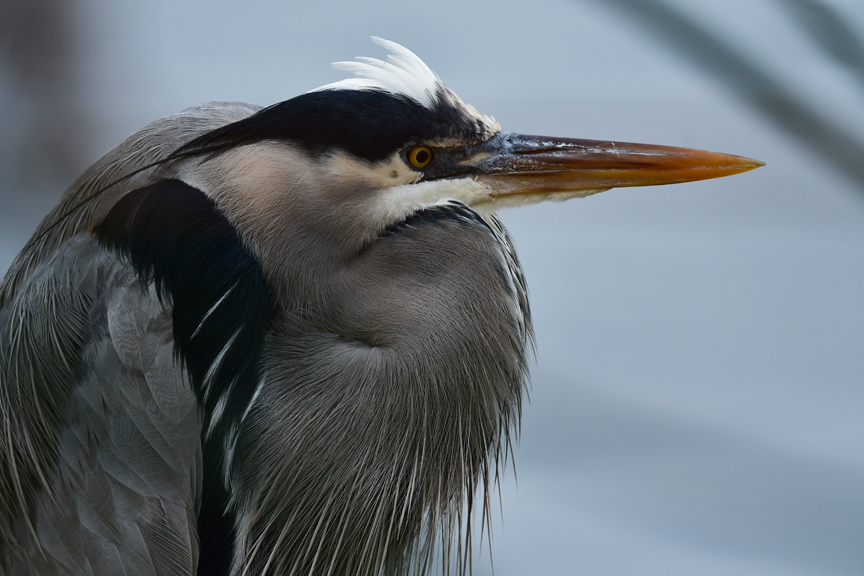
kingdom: Animalia
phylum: Chordata
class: Aves
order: Pelecaniformes
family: Ardeidae
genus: Ardea
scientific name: Ardea herodias
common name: Great blue heron
